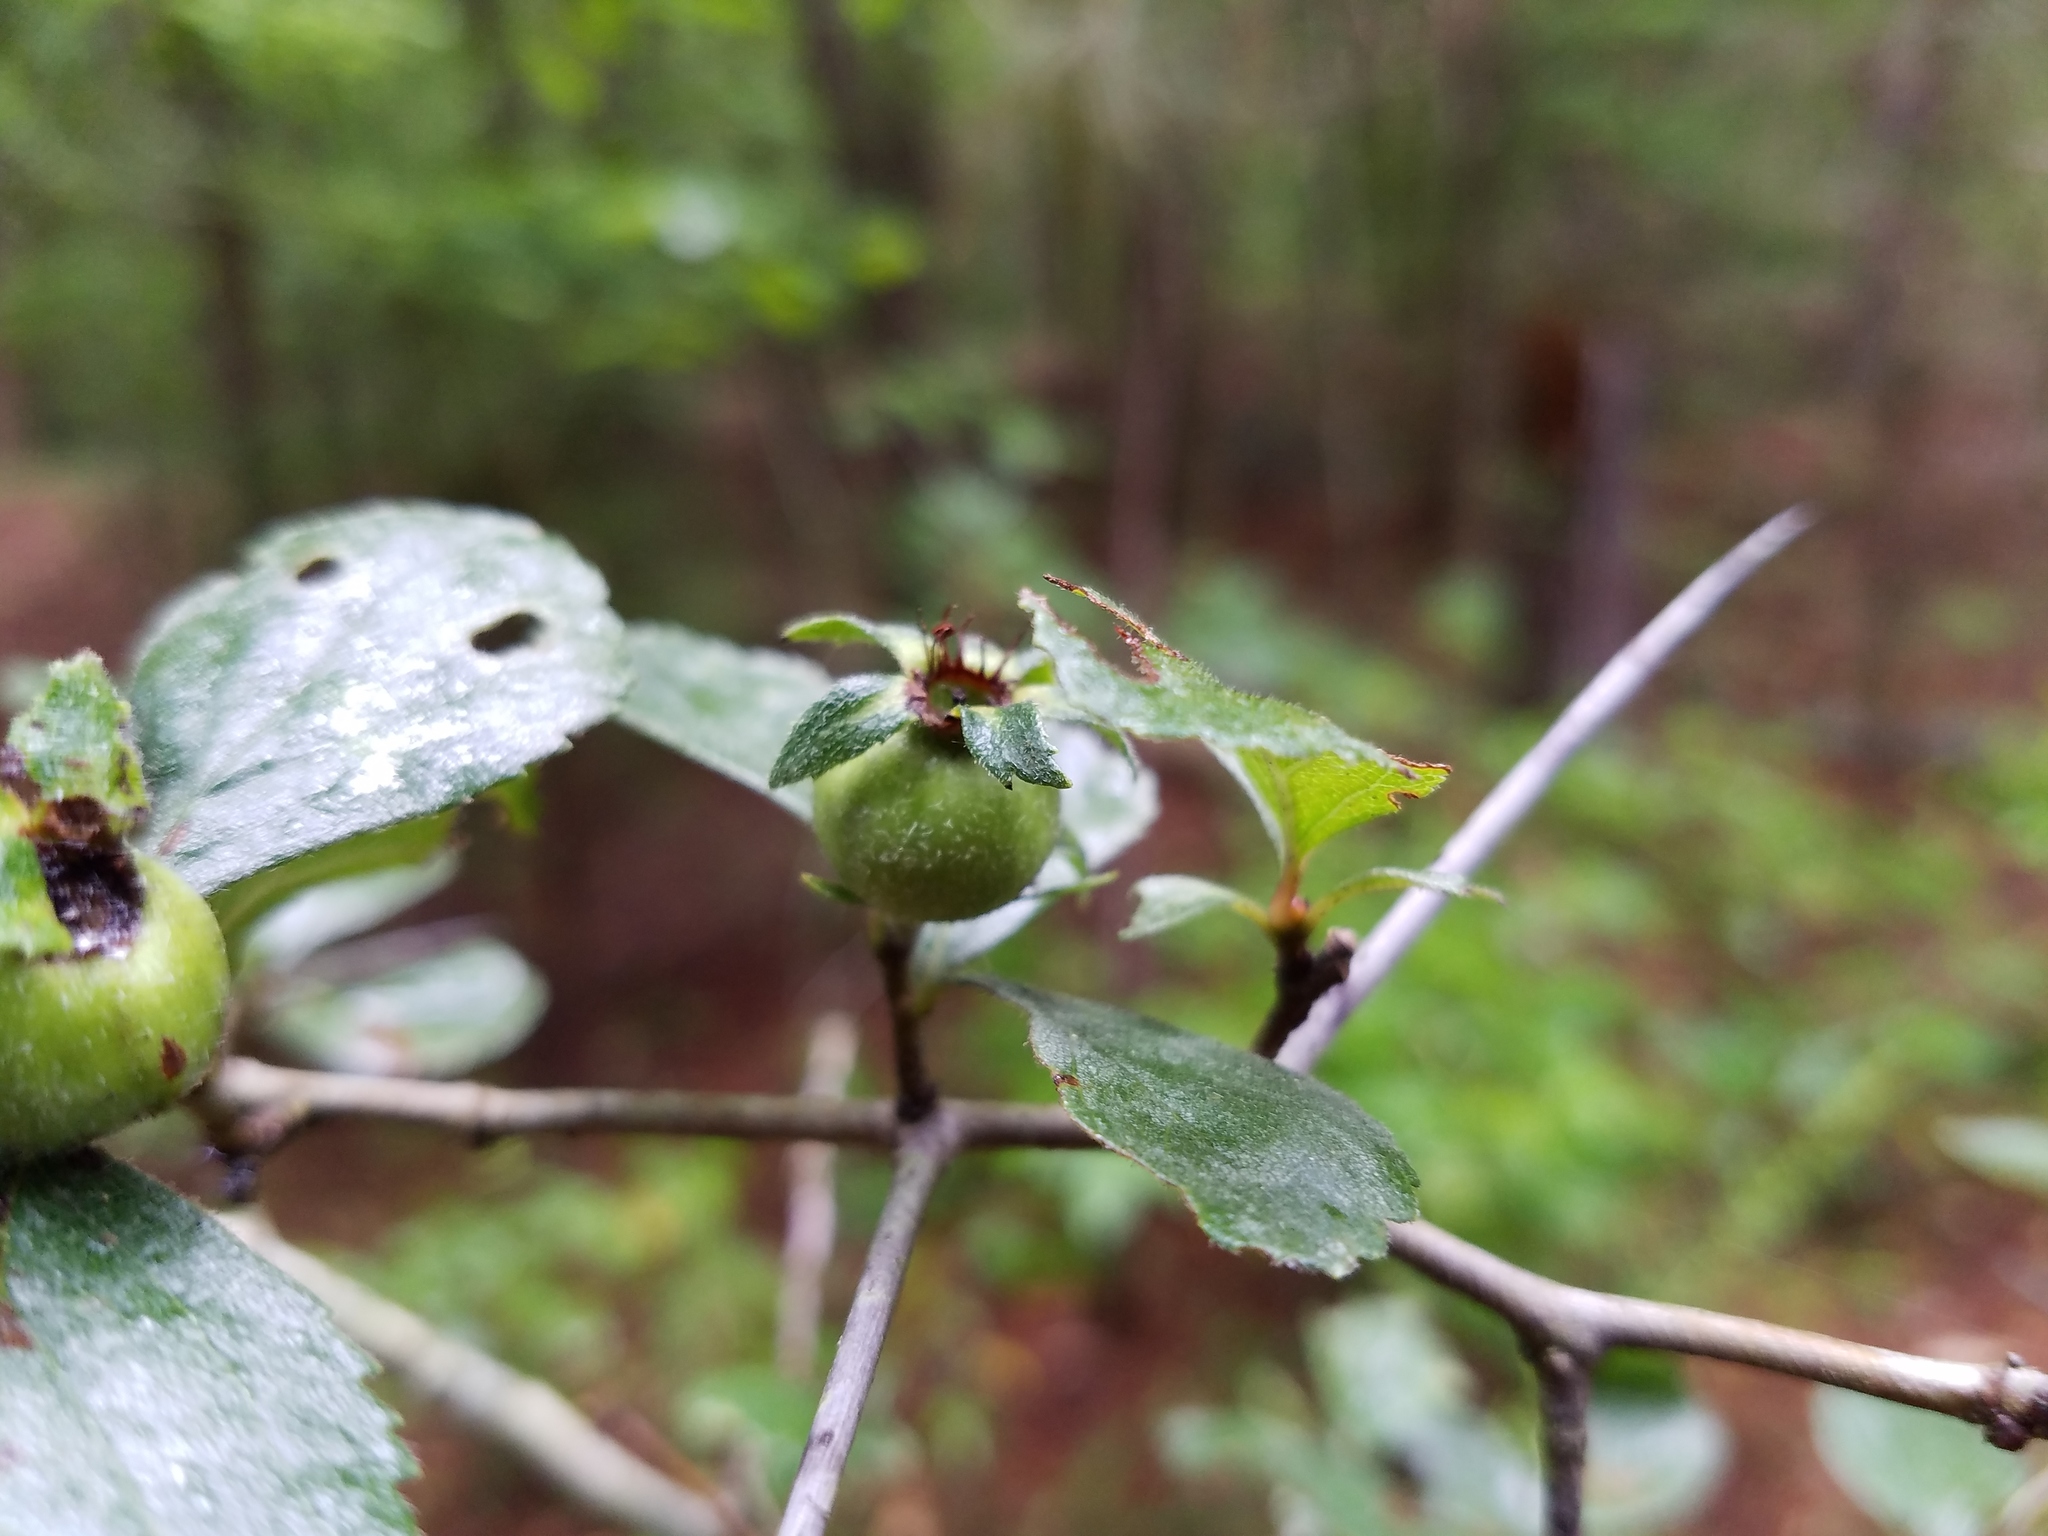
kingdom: Plantae
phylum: Tracheophyta
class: Magnoliopsida
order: Rosales
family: Rosaceae
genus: Crataegus
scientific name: Crataegus uniflora
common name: One-flower hawthorn
